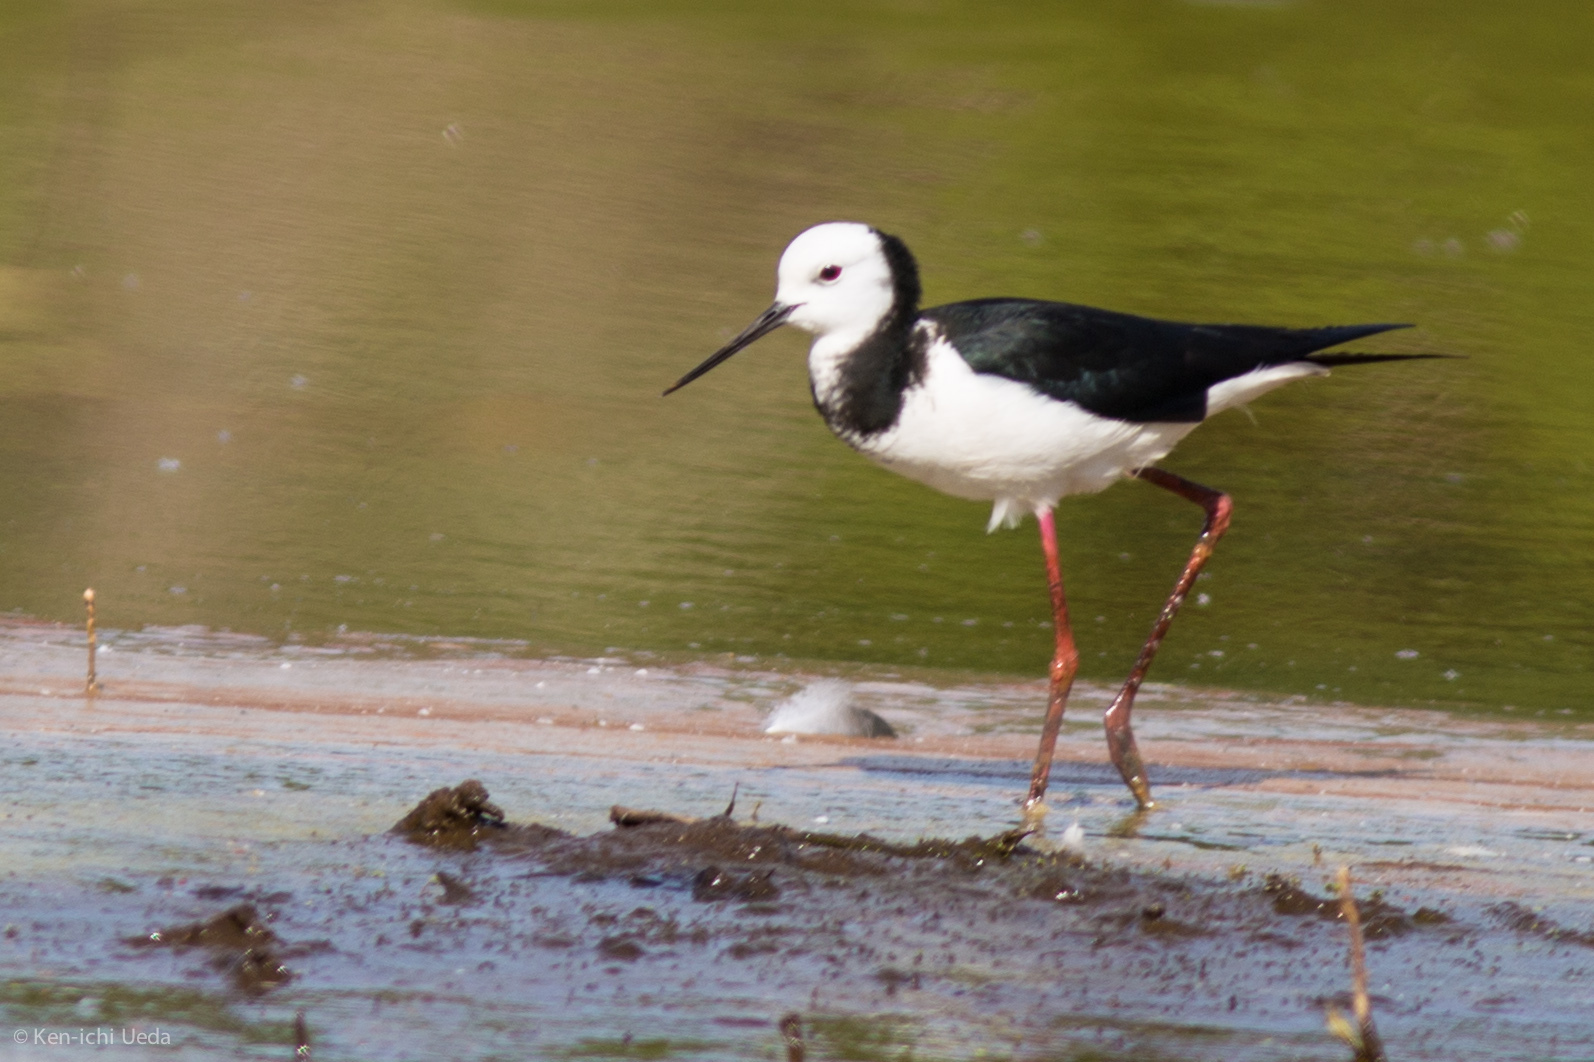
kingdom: Animalia
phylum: Chordata
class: Aves
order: Charadriiformes
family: Recurvirostridae
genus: Himantopus
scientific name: Himantopus leucocephalus
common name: White-headed stilt
